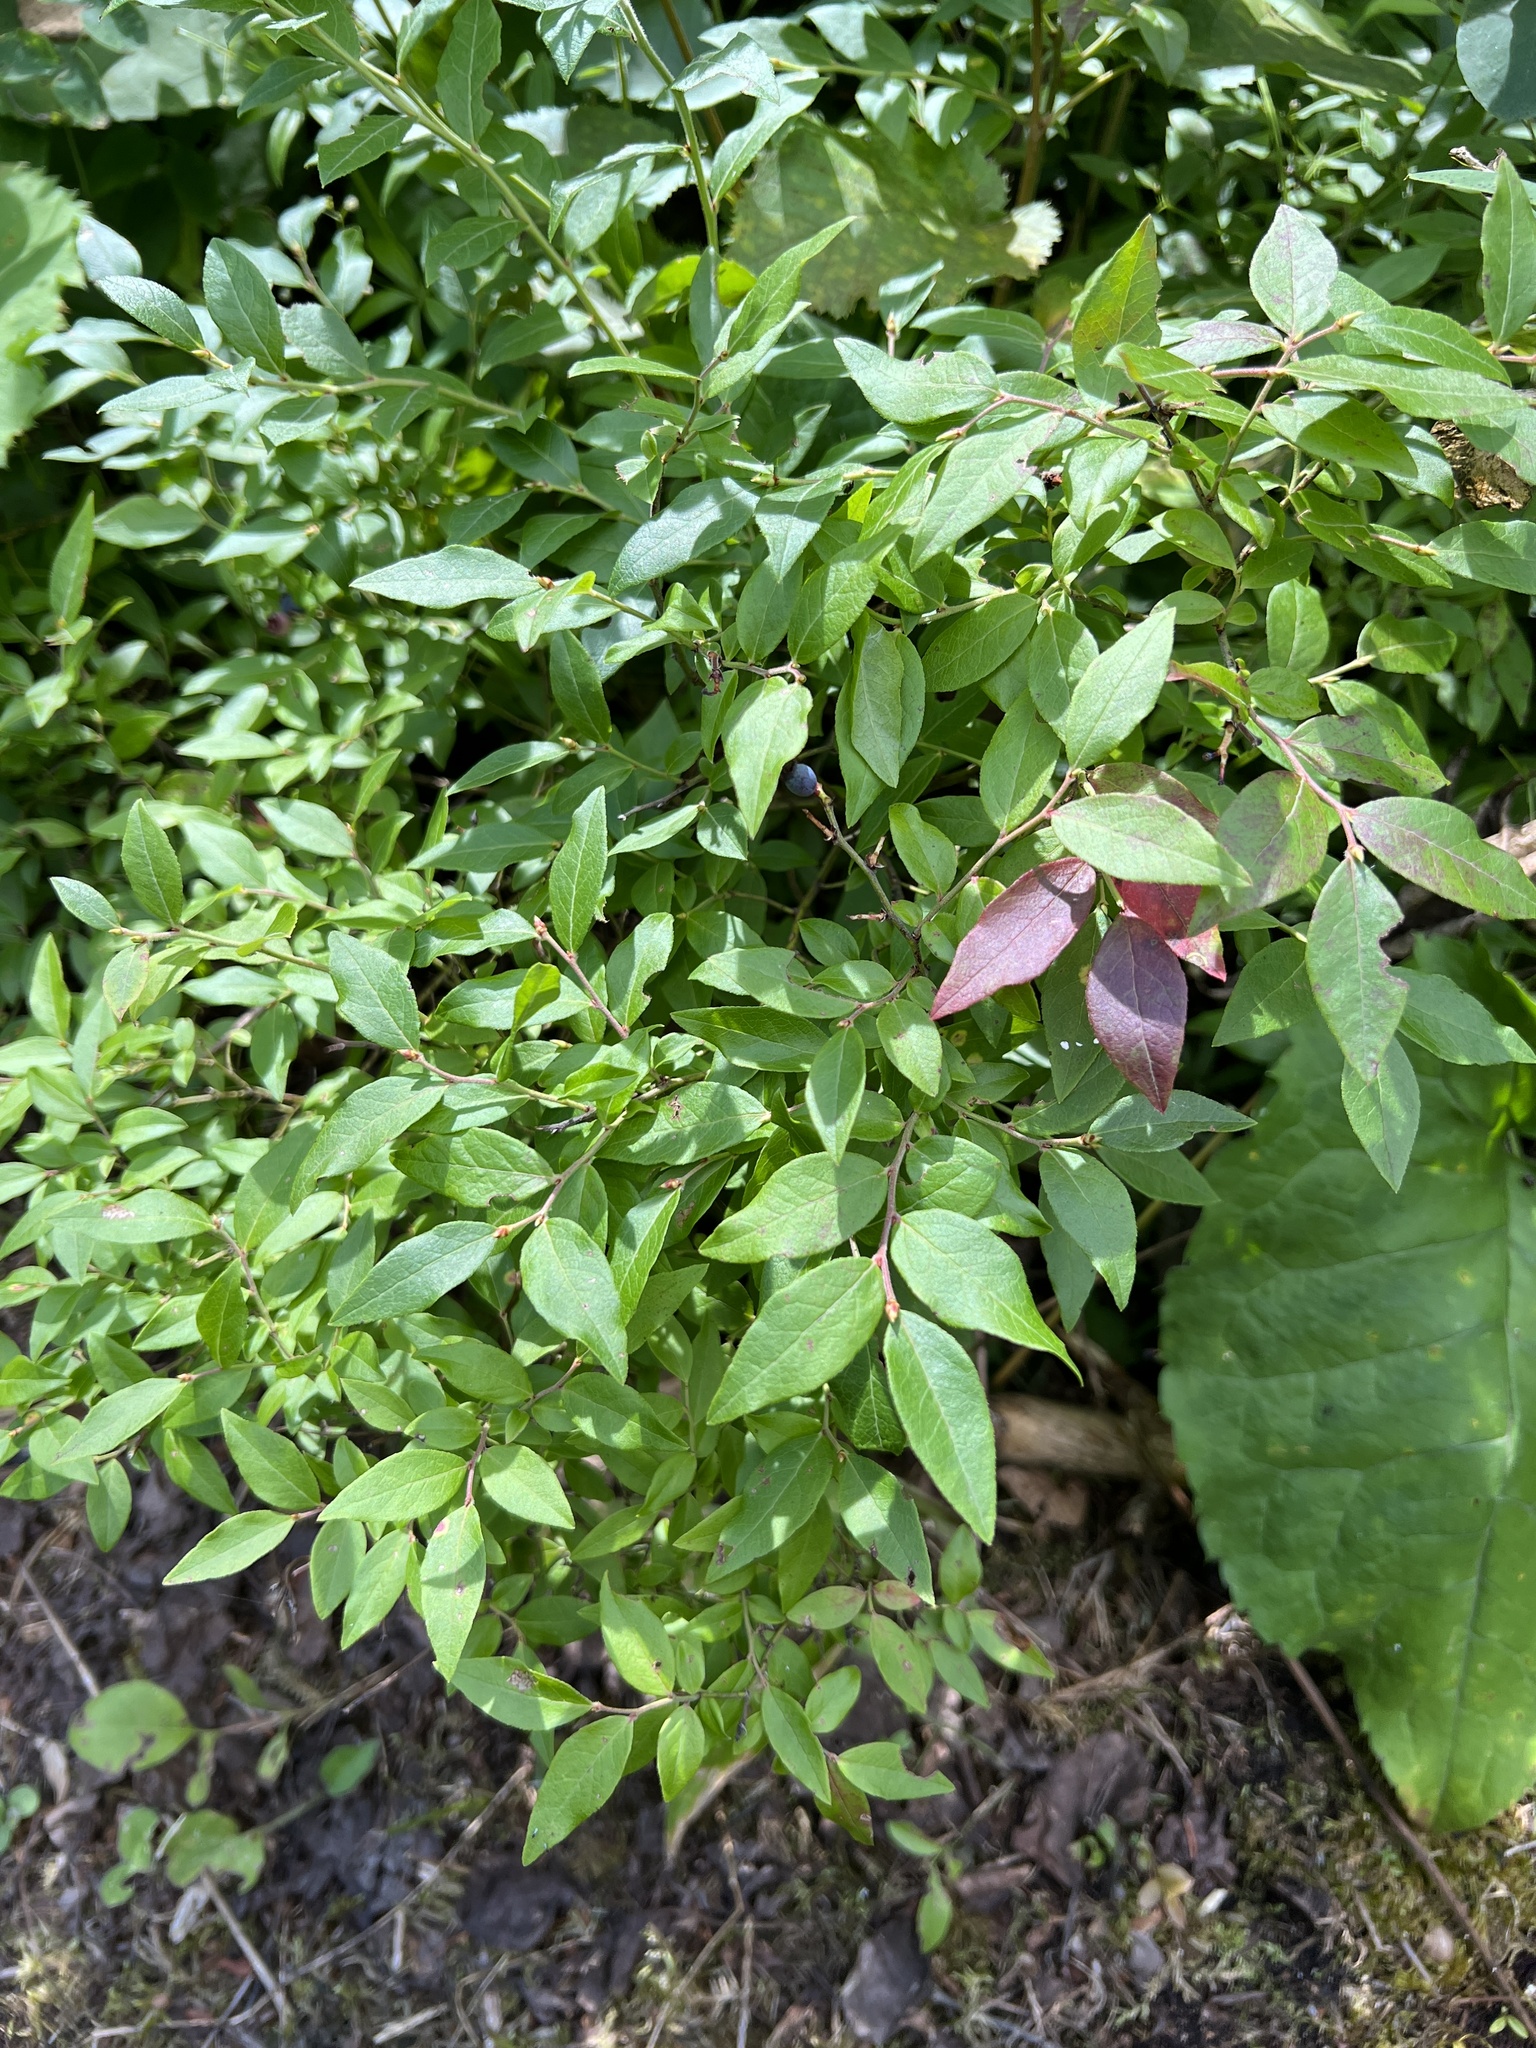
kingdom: Plantae
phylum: Tracheophyta
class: Magnoliopsida
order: Ericales
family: Ericaceae
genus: Vaccinium
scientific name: Vaccinium myrtilloides
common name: Canada blueberry
